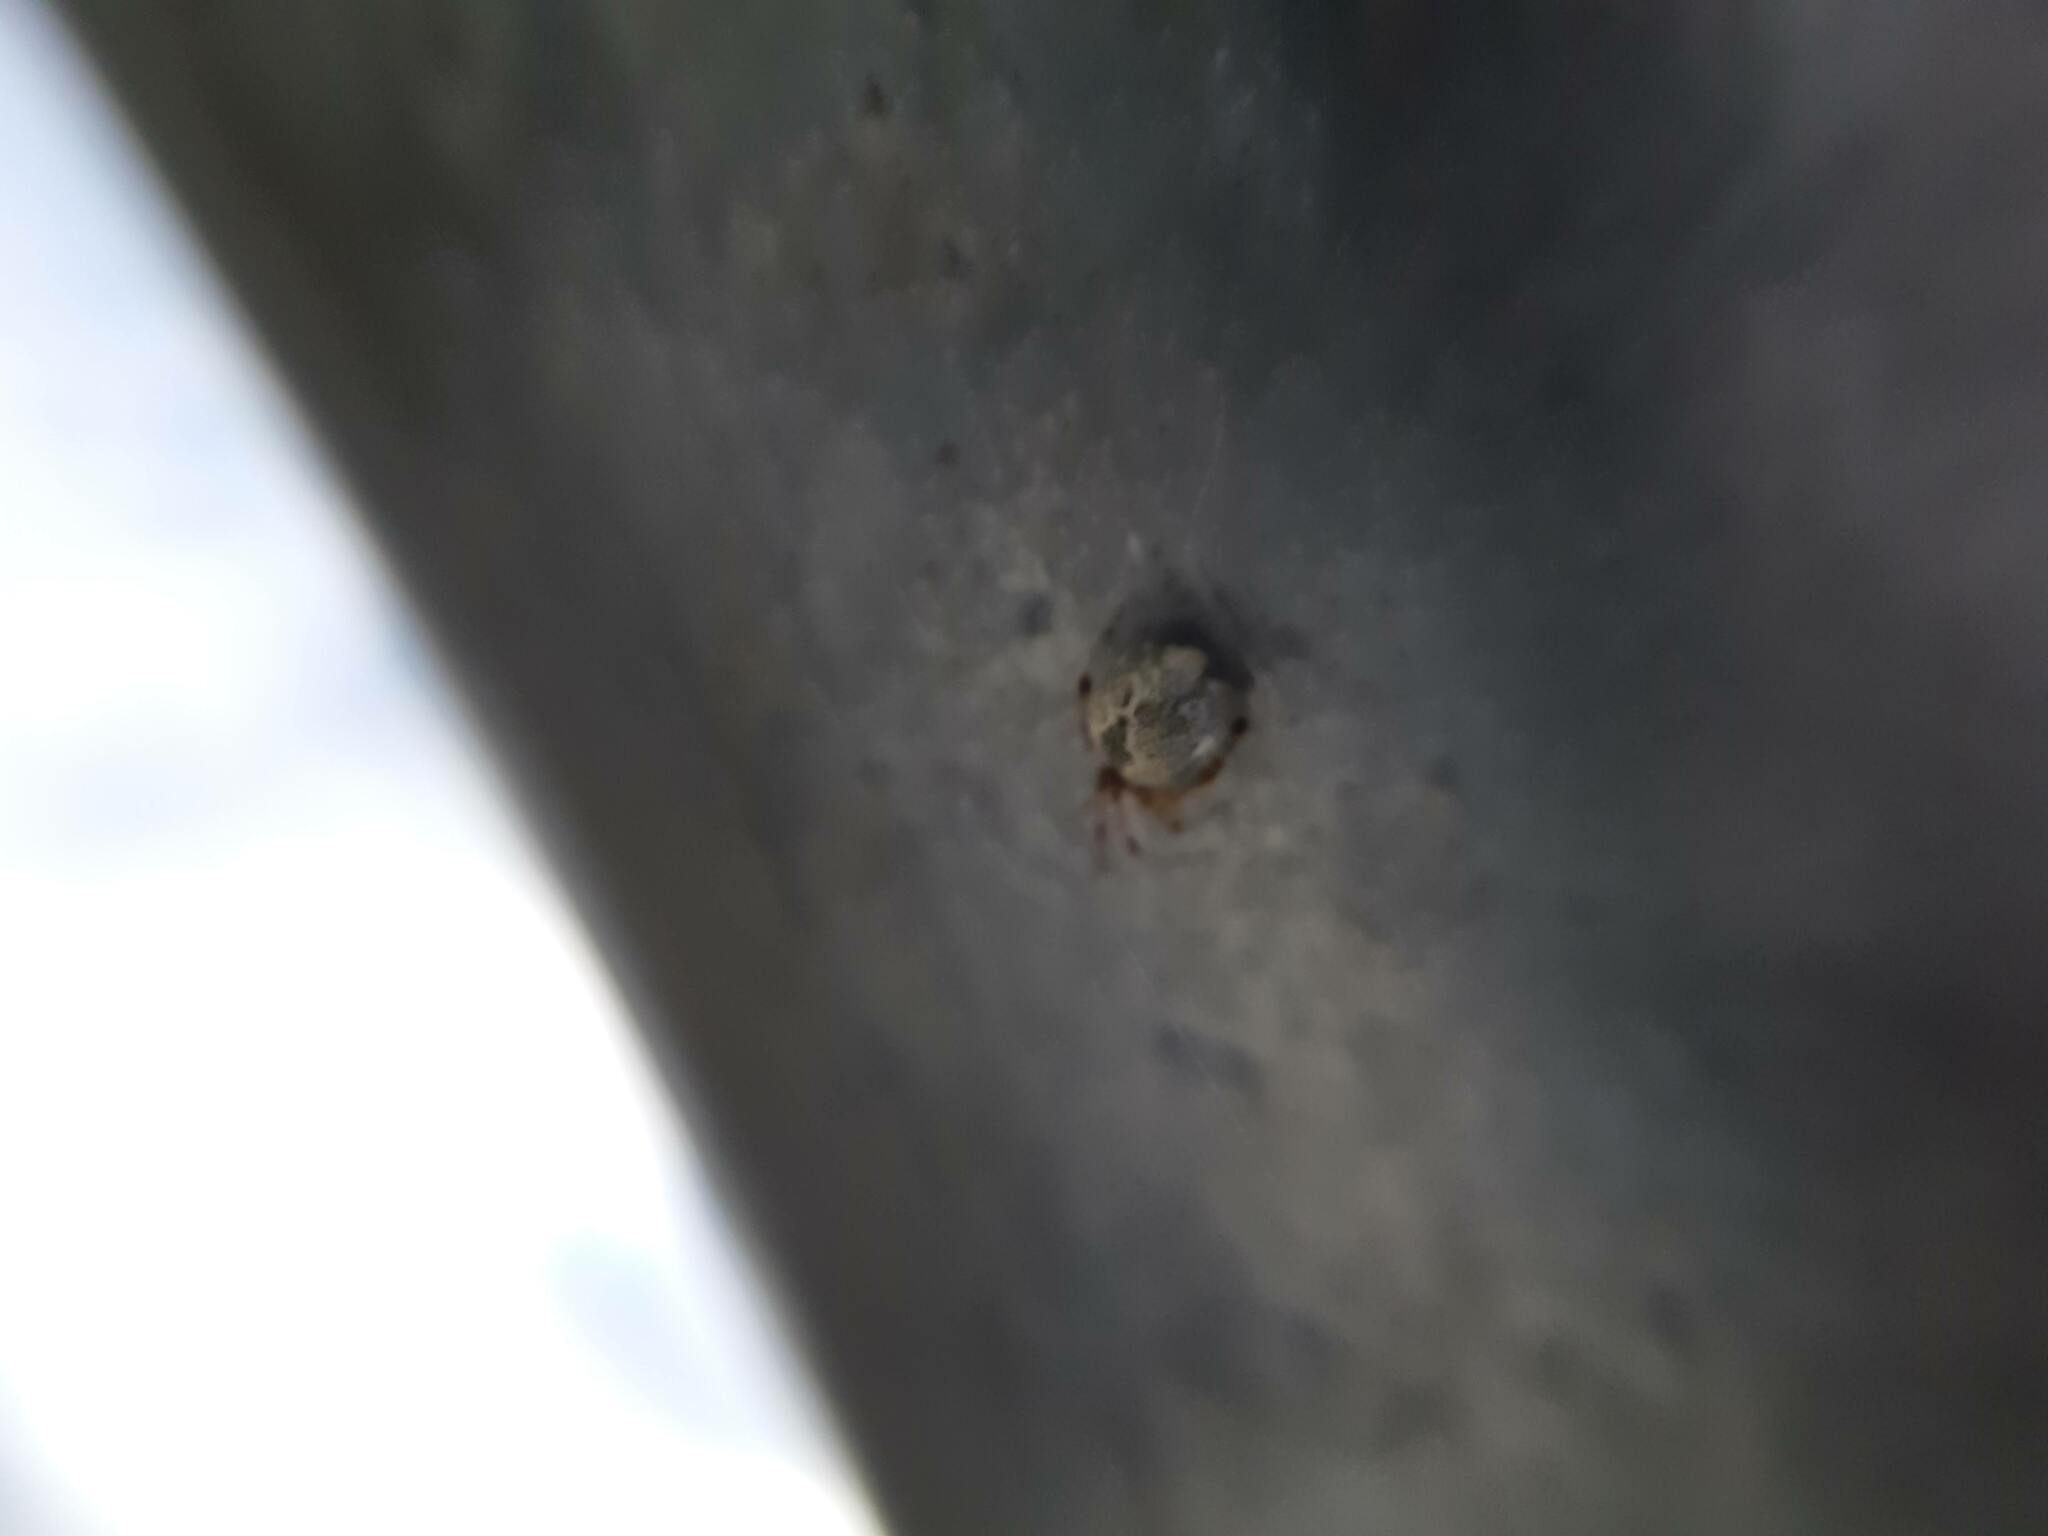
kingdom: Animalia
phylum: Arthropoda
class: Arachnida
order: Araneae
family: Theridiidae
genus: Cryptachaea
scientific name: Cryptachaea veruculata
